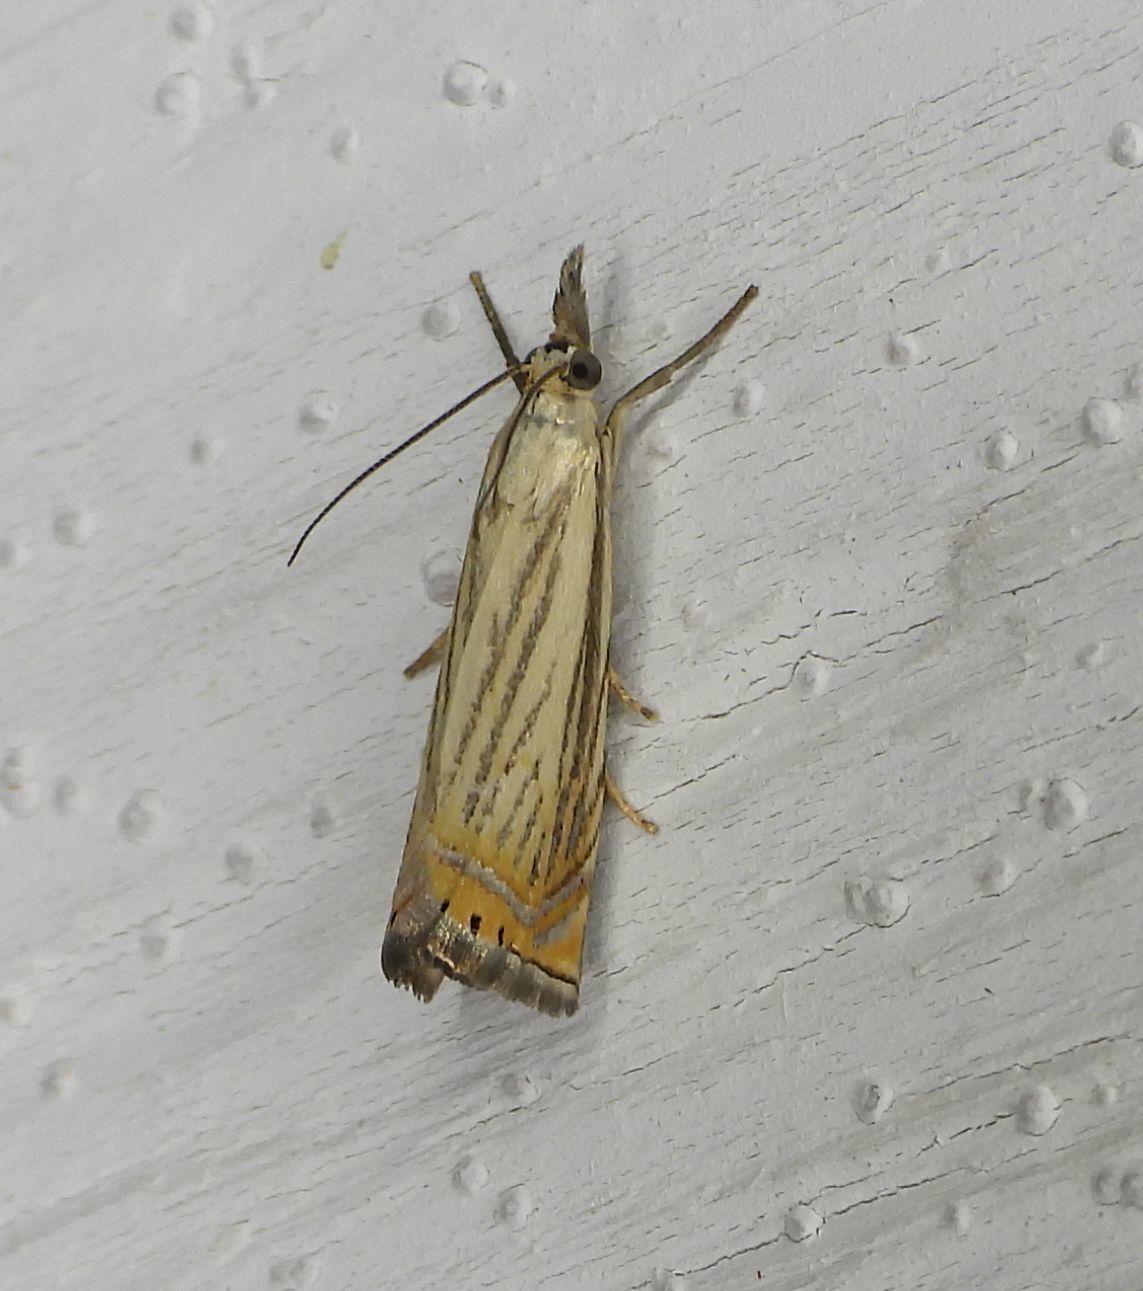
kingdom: Animalia
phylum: Arthropoda
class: Insecta
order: Lepidoptera
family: Crambidae
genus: Chrysoteuchia
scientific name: Chrysoteuchia topiarius
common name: Topiary grass-veneer
